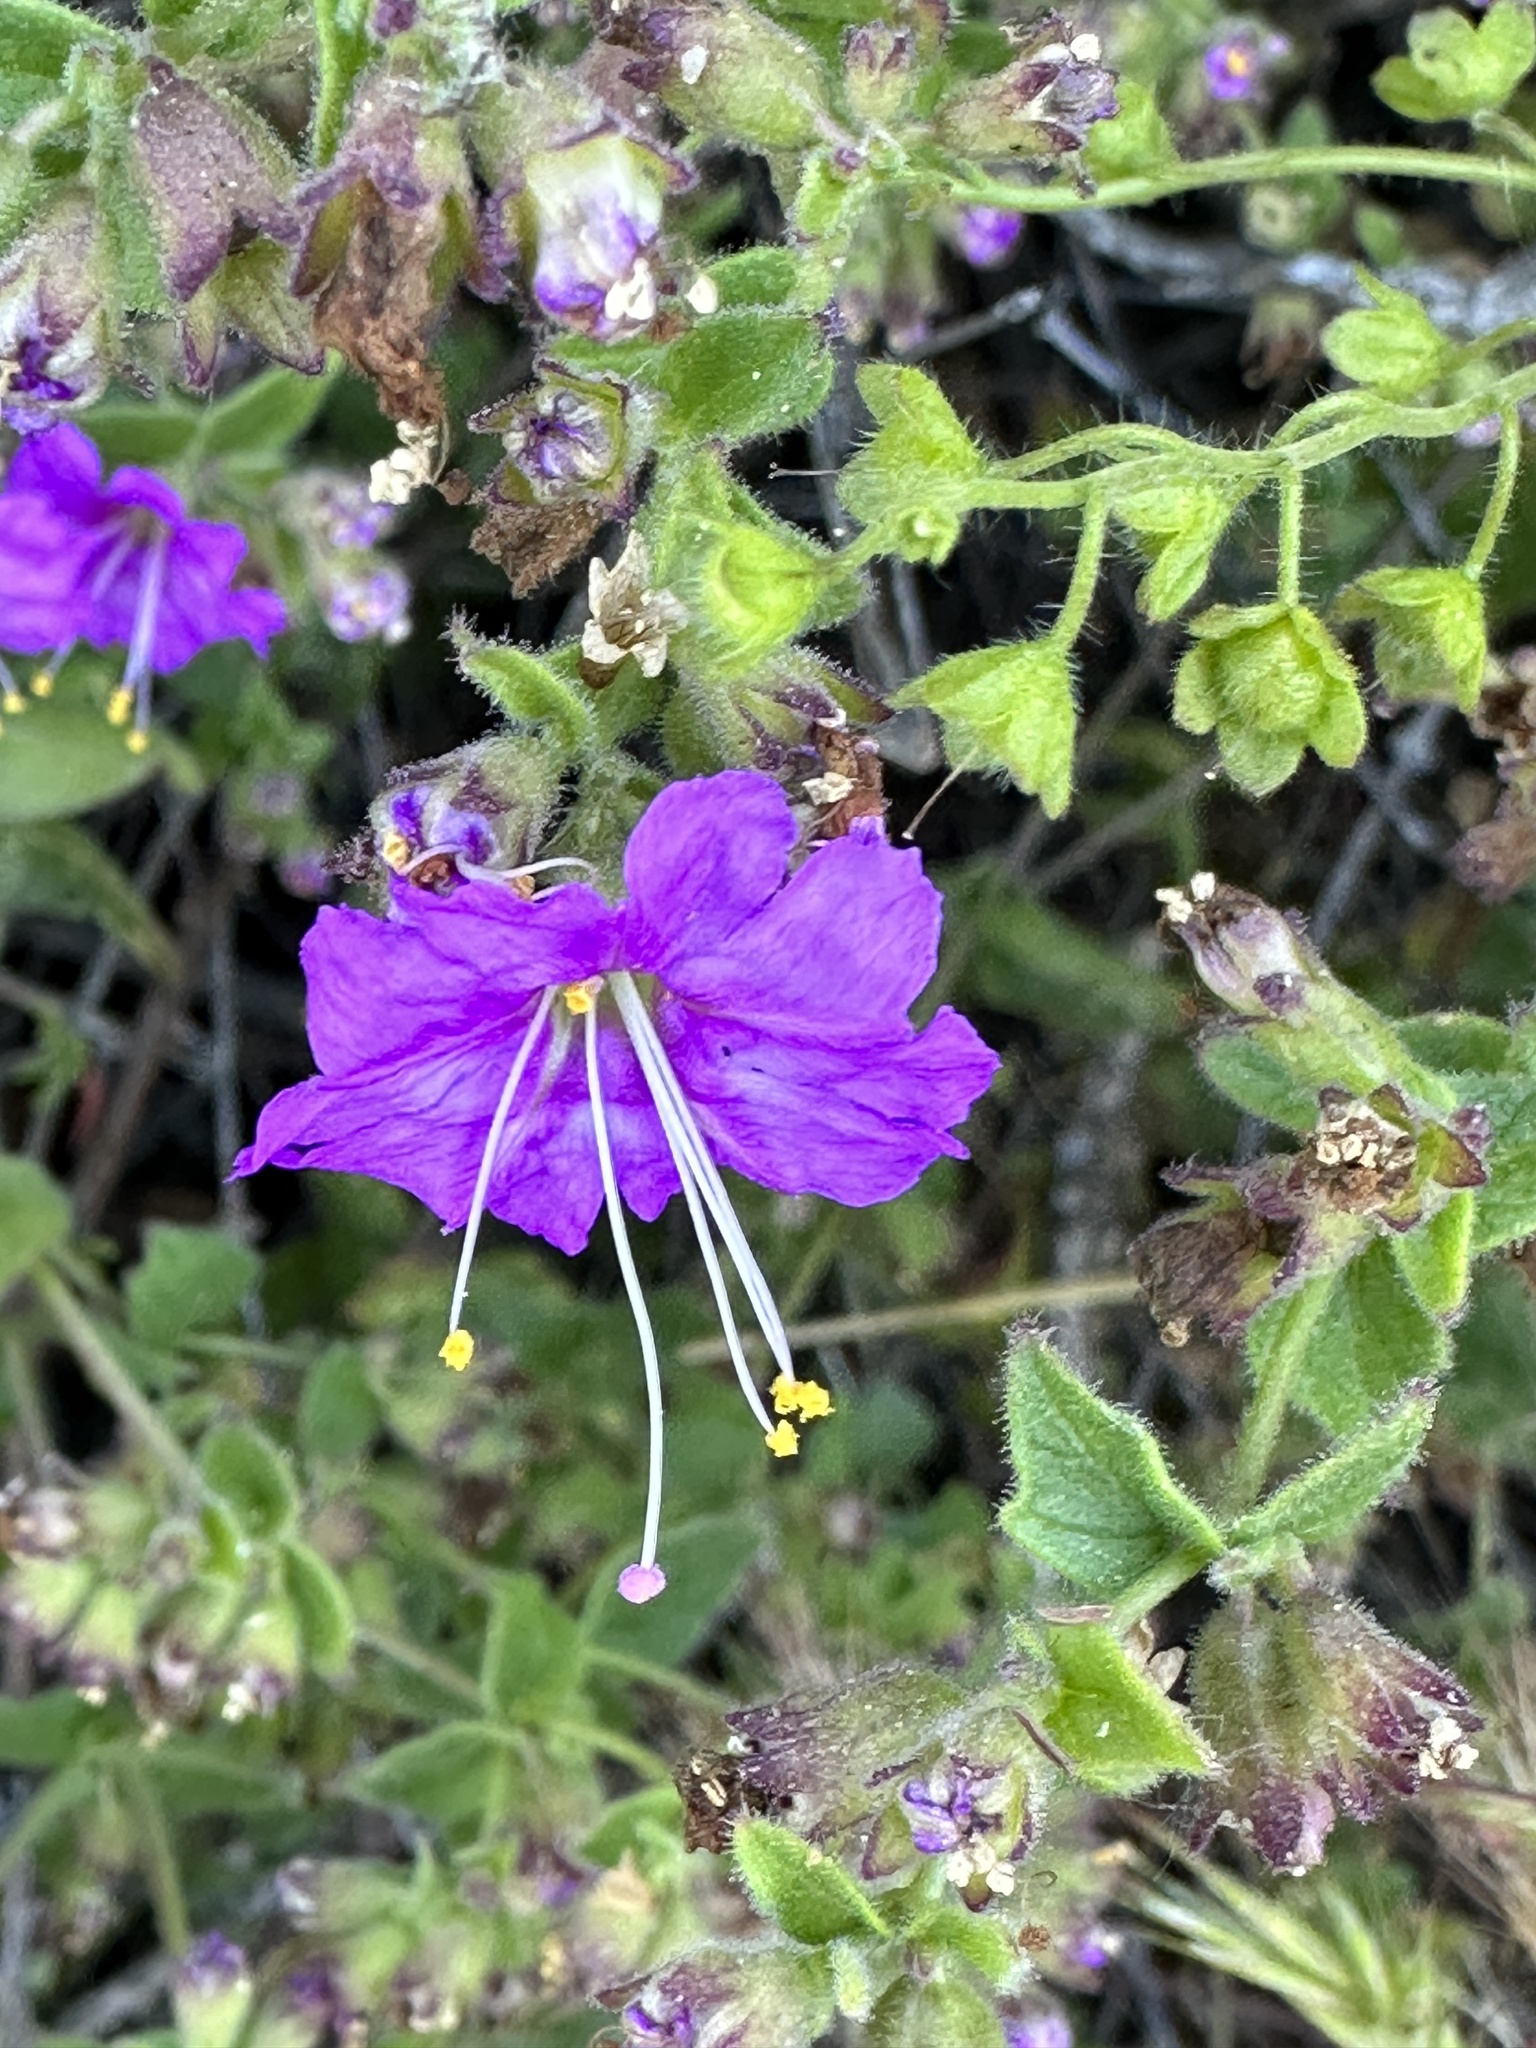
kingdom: Plantae
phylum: Tracheophyta
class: Magnoliopsida
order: Caryophyllales
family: Nyctaginaceae
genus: Mirabilis
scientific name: Mirabilis laevis
